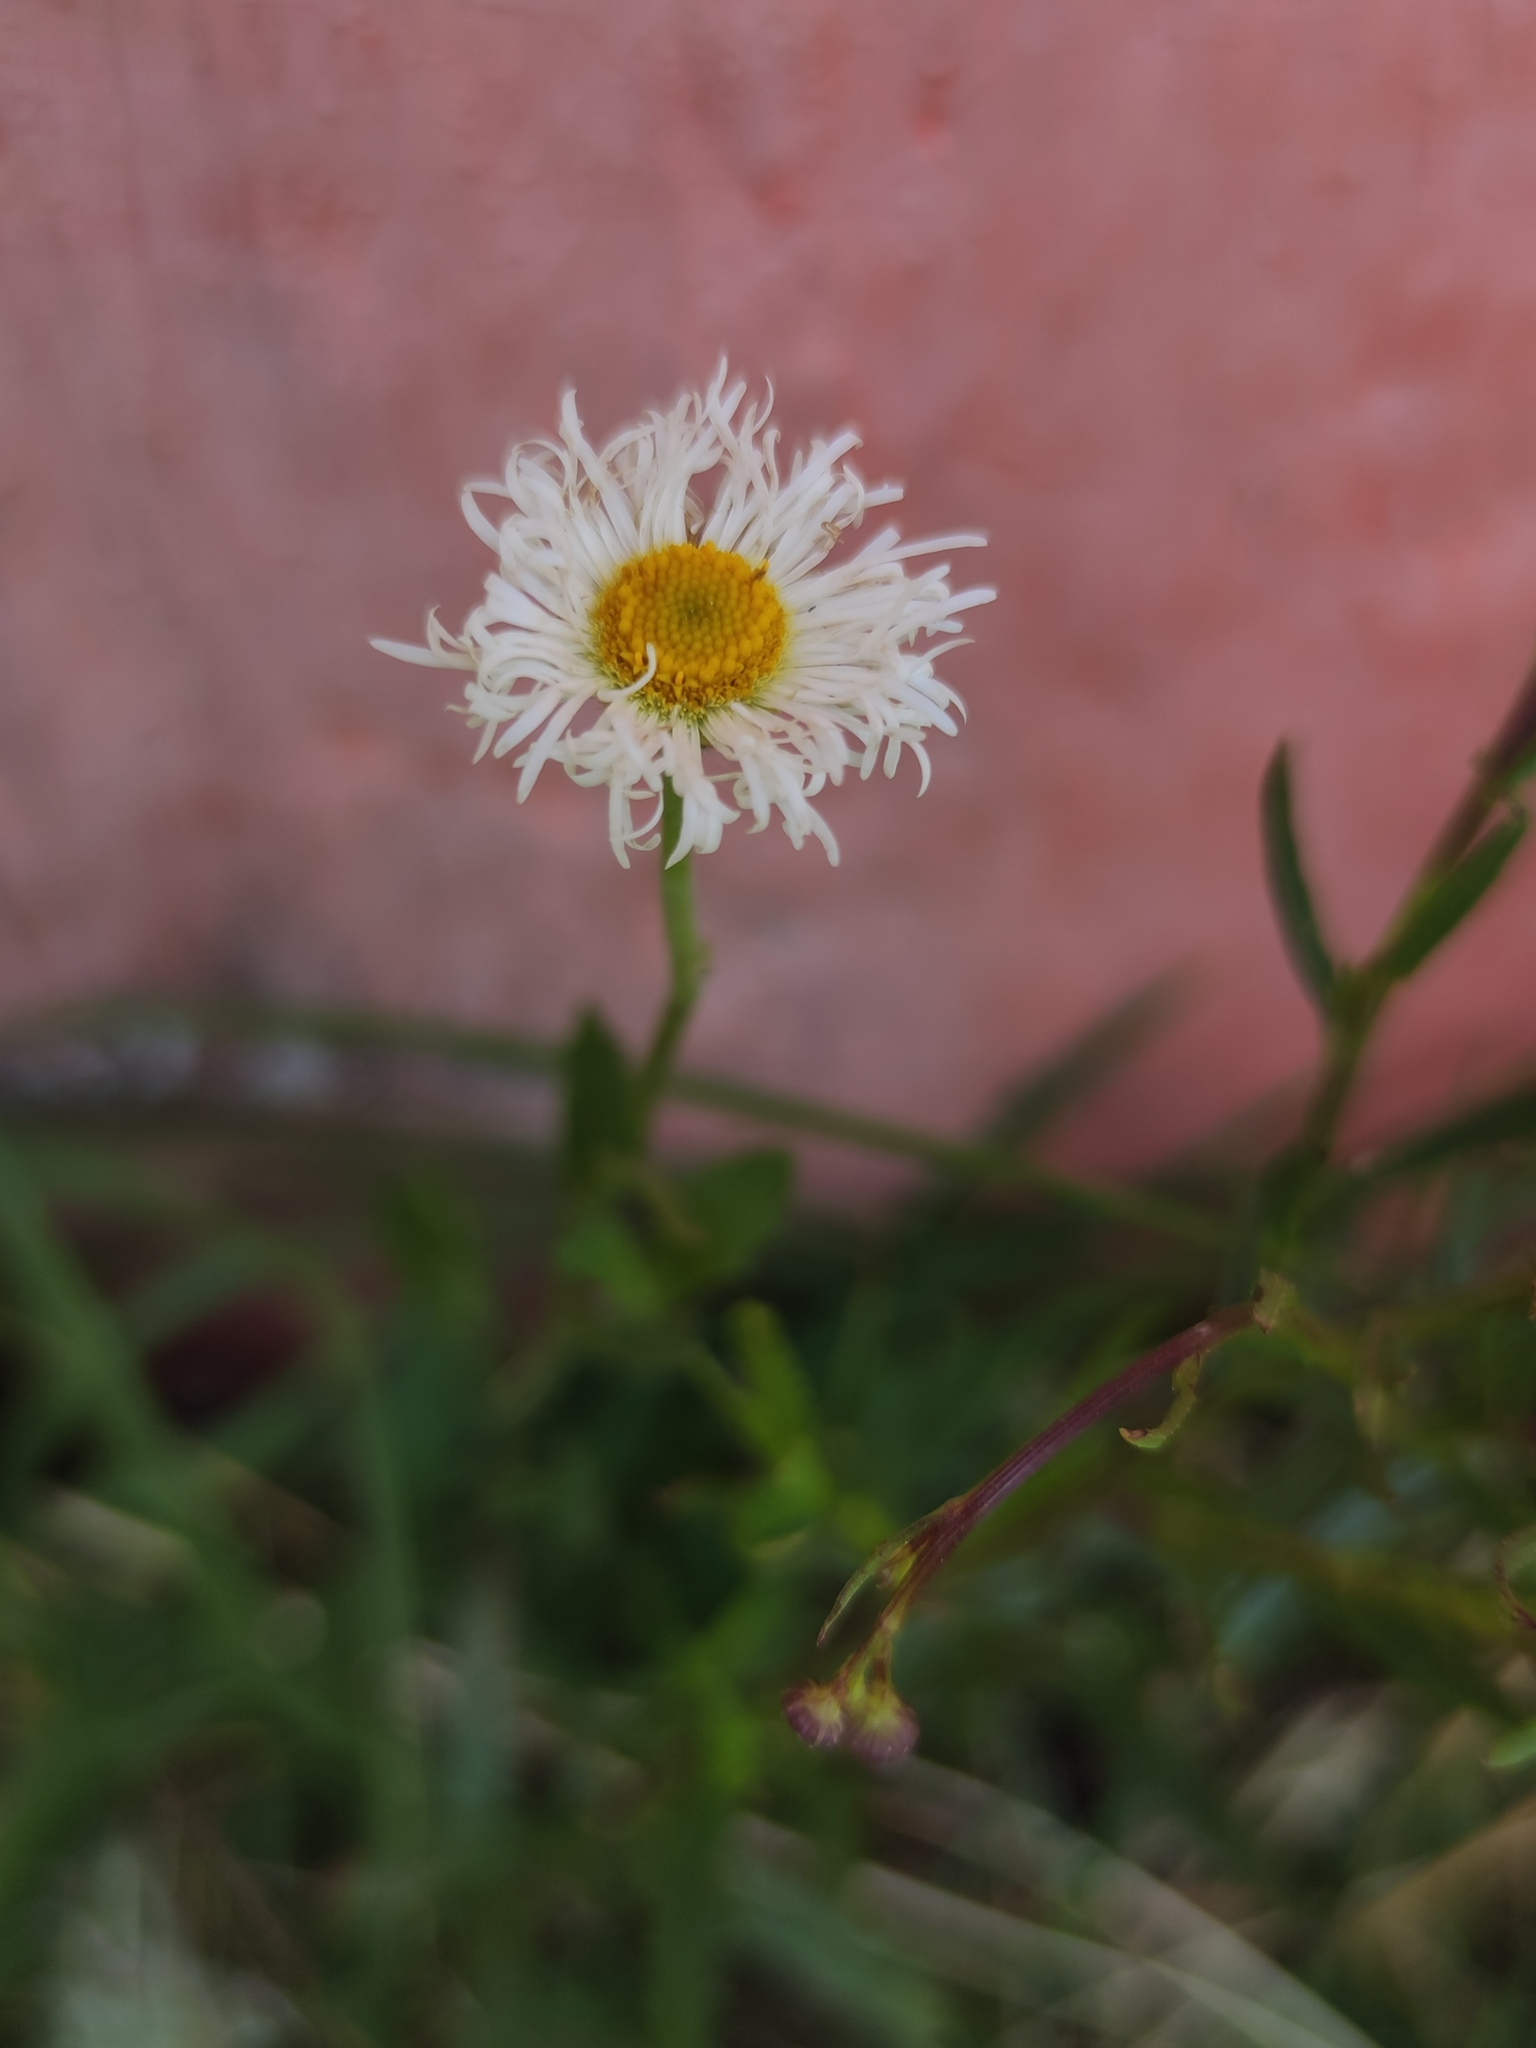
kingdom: Plantae
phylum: Tracheophyta
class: Magnoliopsida
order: Asterales
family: Asteraceae
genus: Erigeron
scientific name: Erigeron longipes
